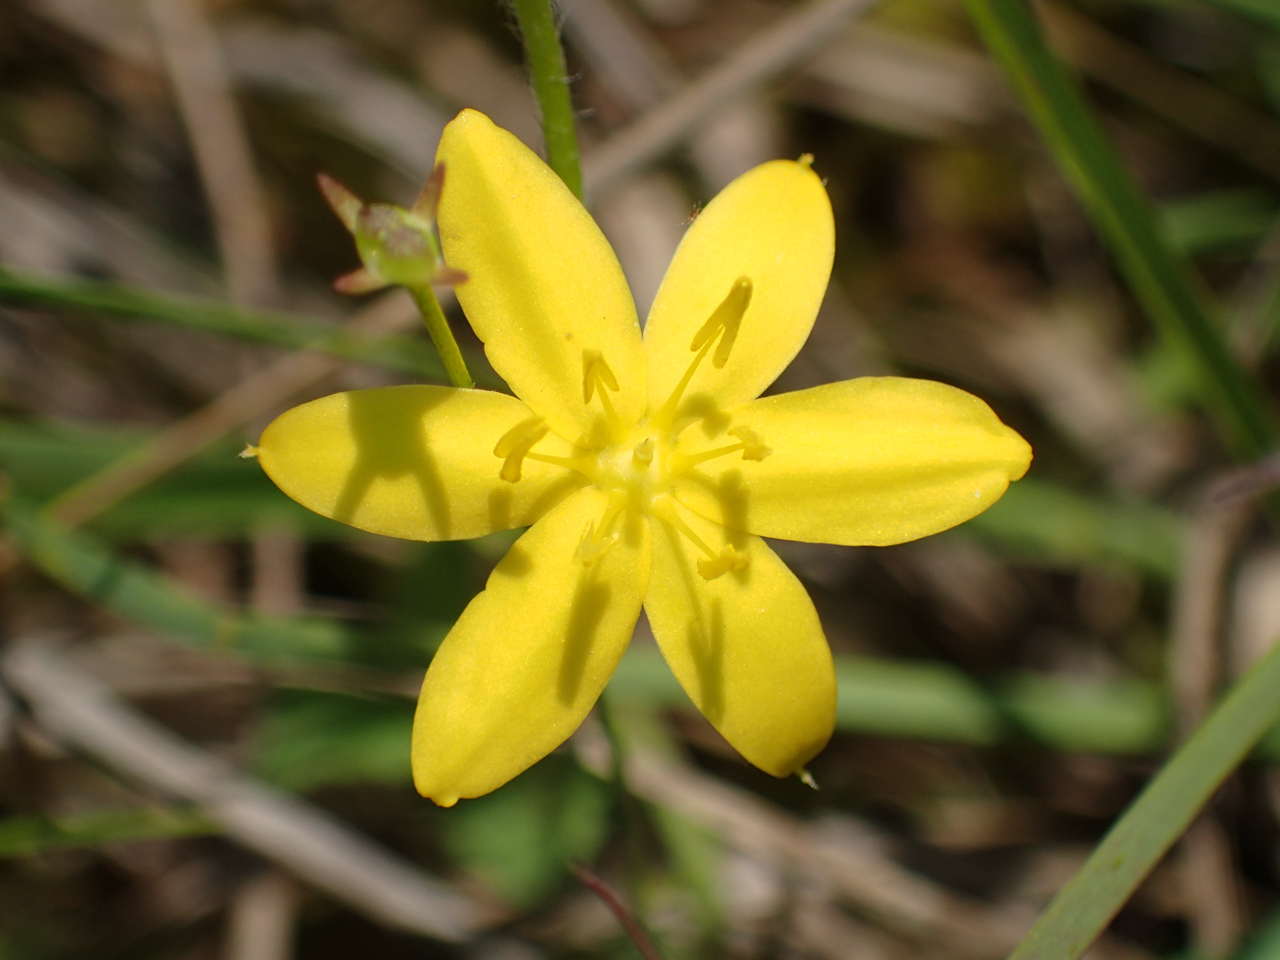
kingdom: Plantae
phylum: Tracheophyta
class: Liliopsida
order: Asparagales
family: Hypoxidaceae
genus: Hypoxis
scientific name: Hypoxis hirsuta
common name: Common goldstar
